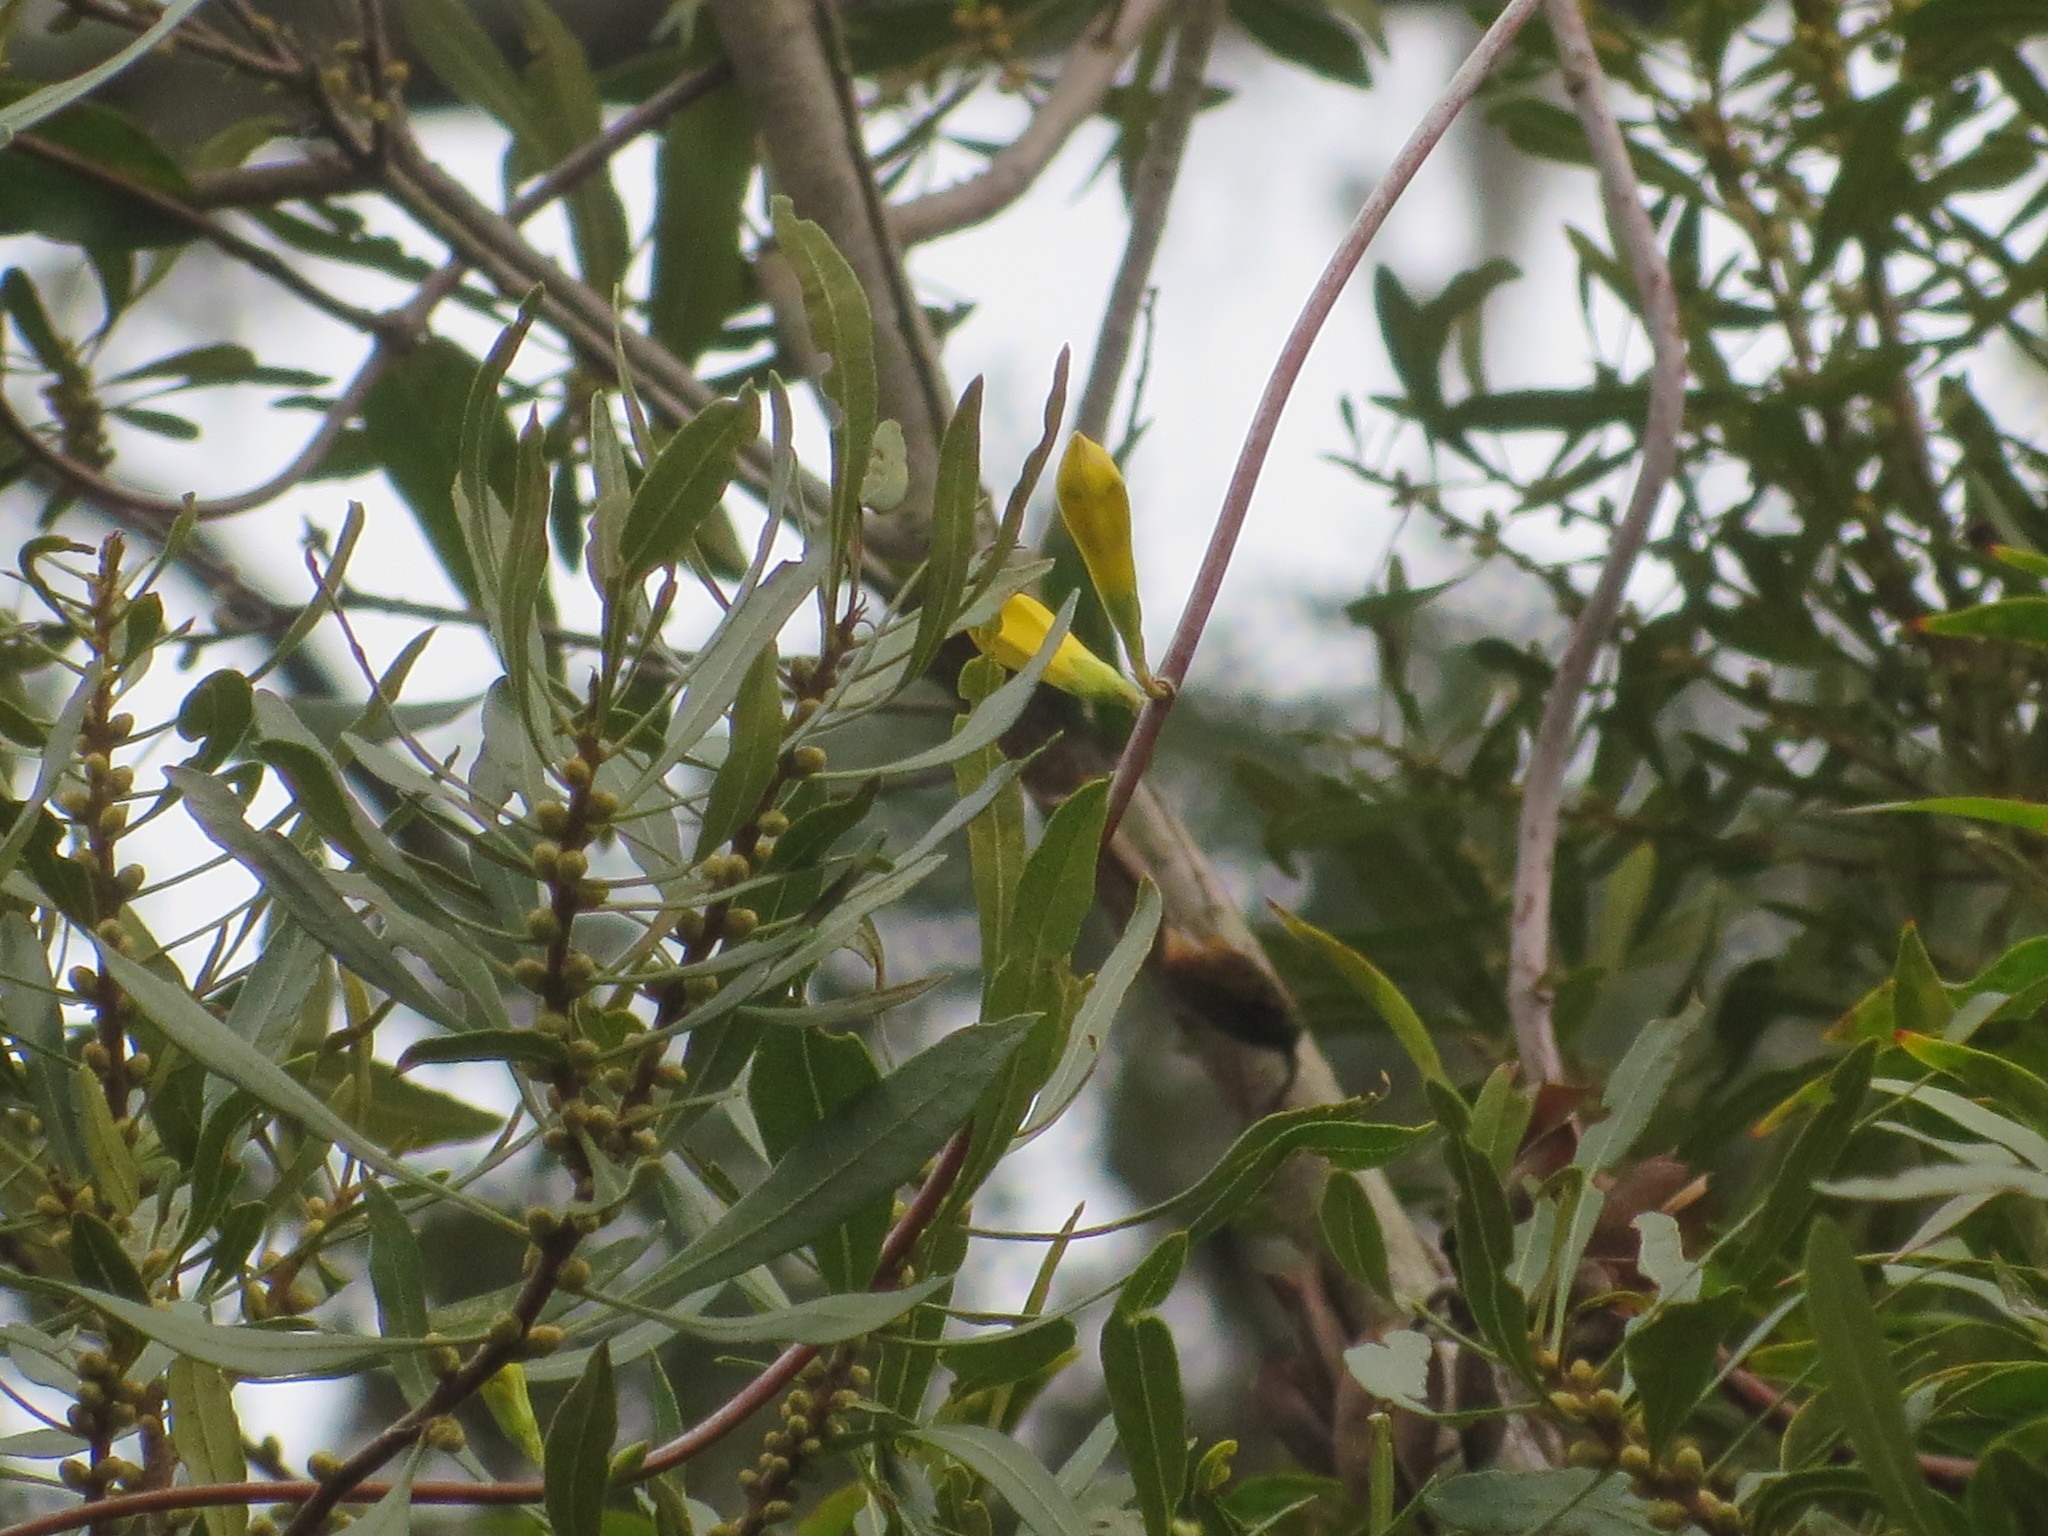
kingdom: Plantae
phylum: Tracheophyta
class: Magnoliopsida
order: Gentianales
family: Gelsemiaceae
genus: Gelsemium
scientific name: Gelsemium sempervirens
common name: Carolina-jasmine
